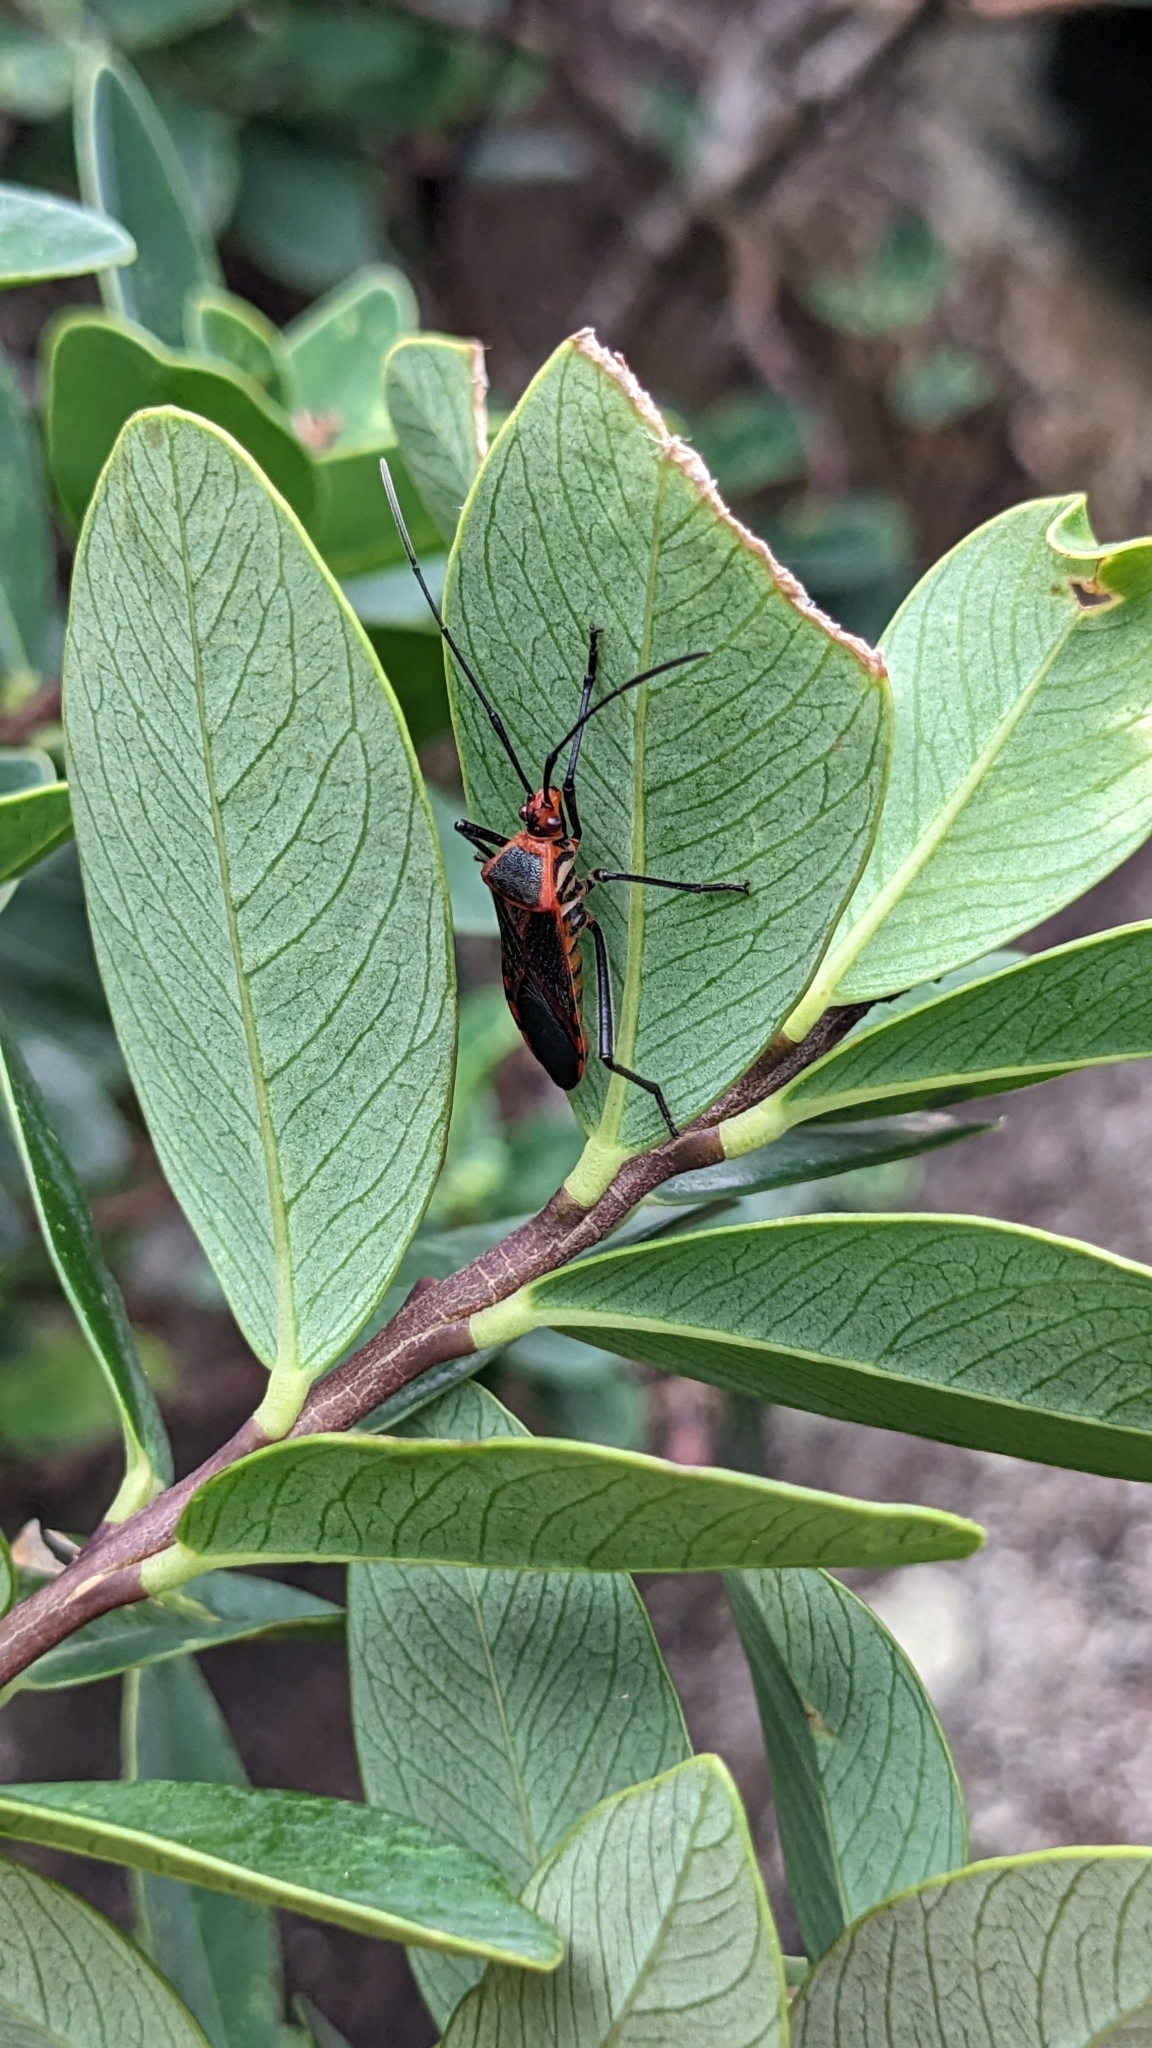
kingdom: Animalia
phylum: Arthropoda
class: Insecta
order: Hemiptera
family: Coreidae
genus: Dasynus
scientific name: Dasynus coccocinctus
